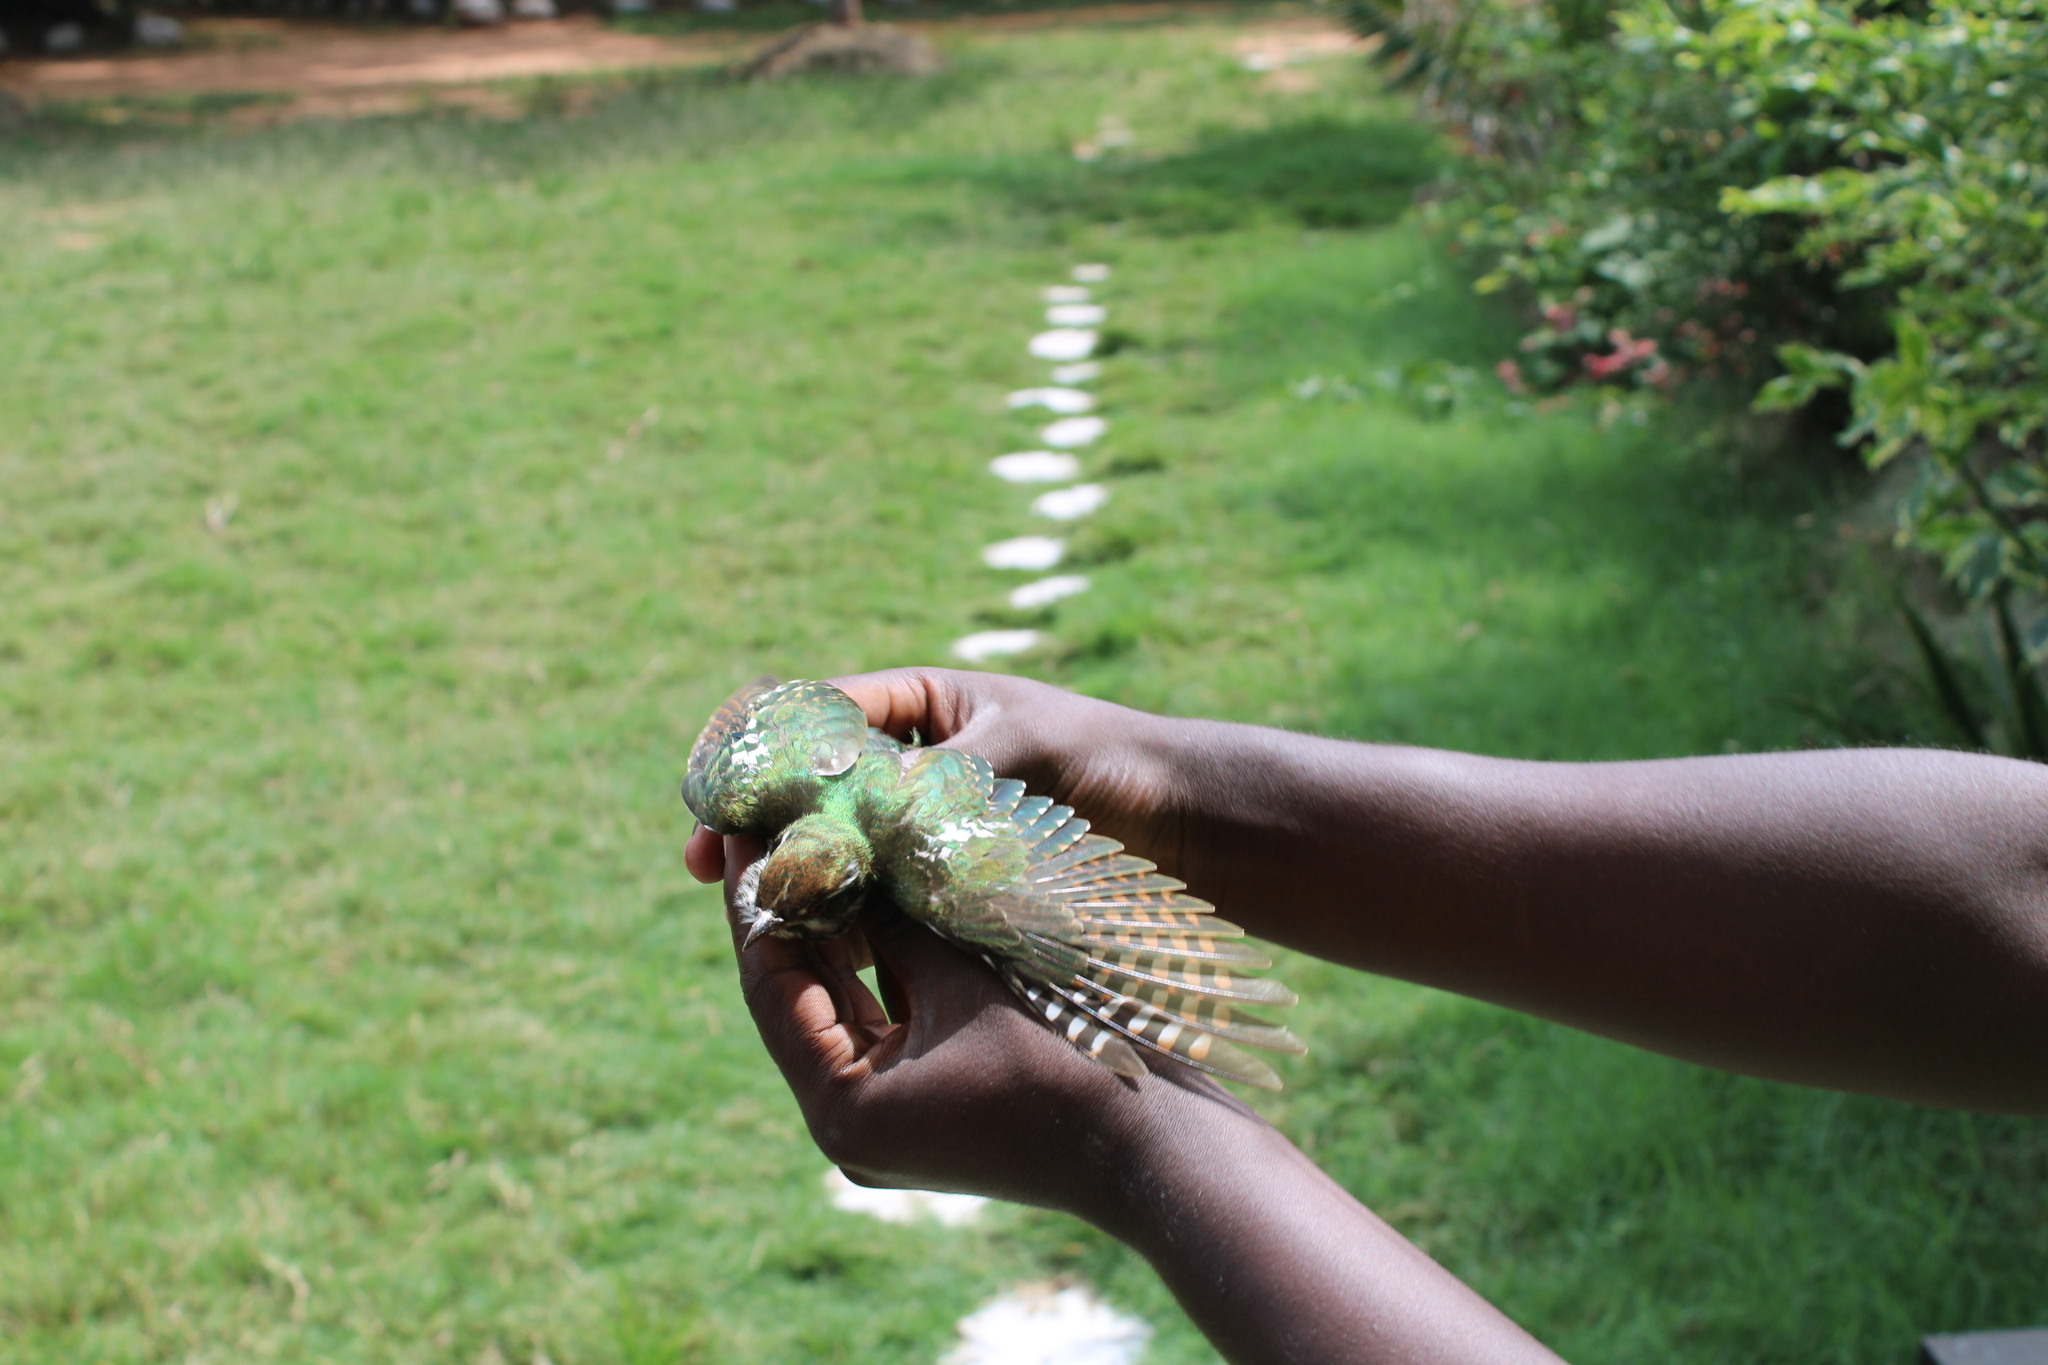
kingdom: Animalia
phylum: Chordata
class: Aves
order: Cuculiformes
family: Cuculidae
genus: Chrysococcyx
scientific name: Chrysococcyx caprius
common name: Diederik cuckoo
